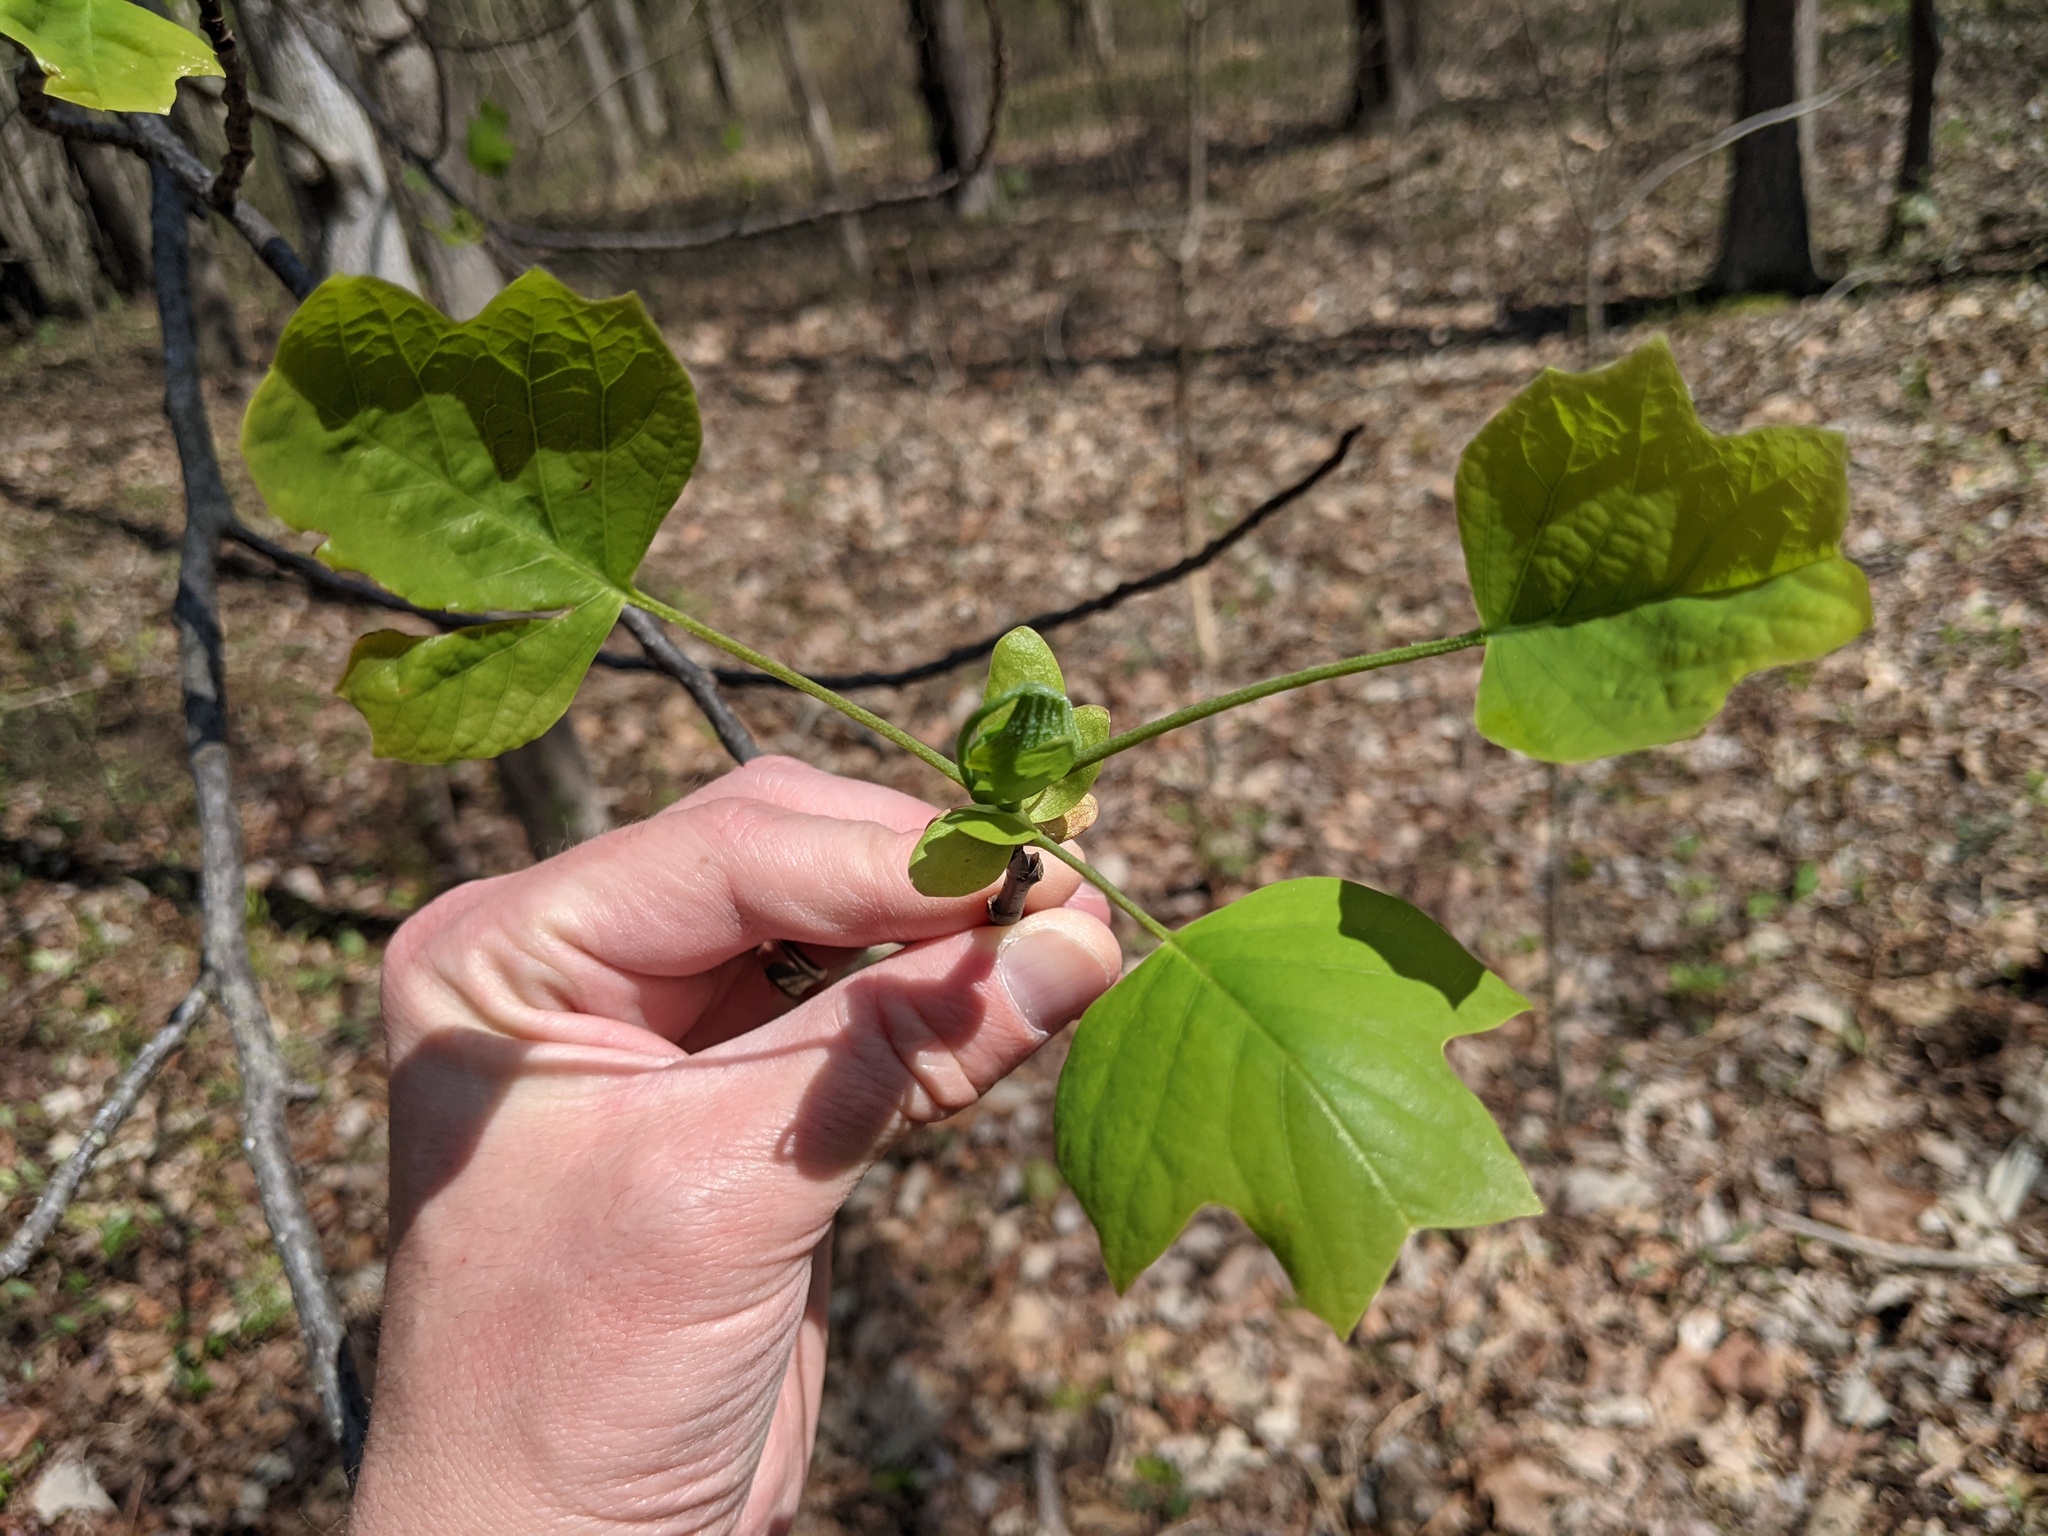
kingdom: Plantae
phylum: Tracheophyta
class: Magnoliopsida
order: Magnoliales
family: Magnoliaceae
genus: Liriodendron
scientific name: Liriodendron tulipifera
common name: Tulip tree
